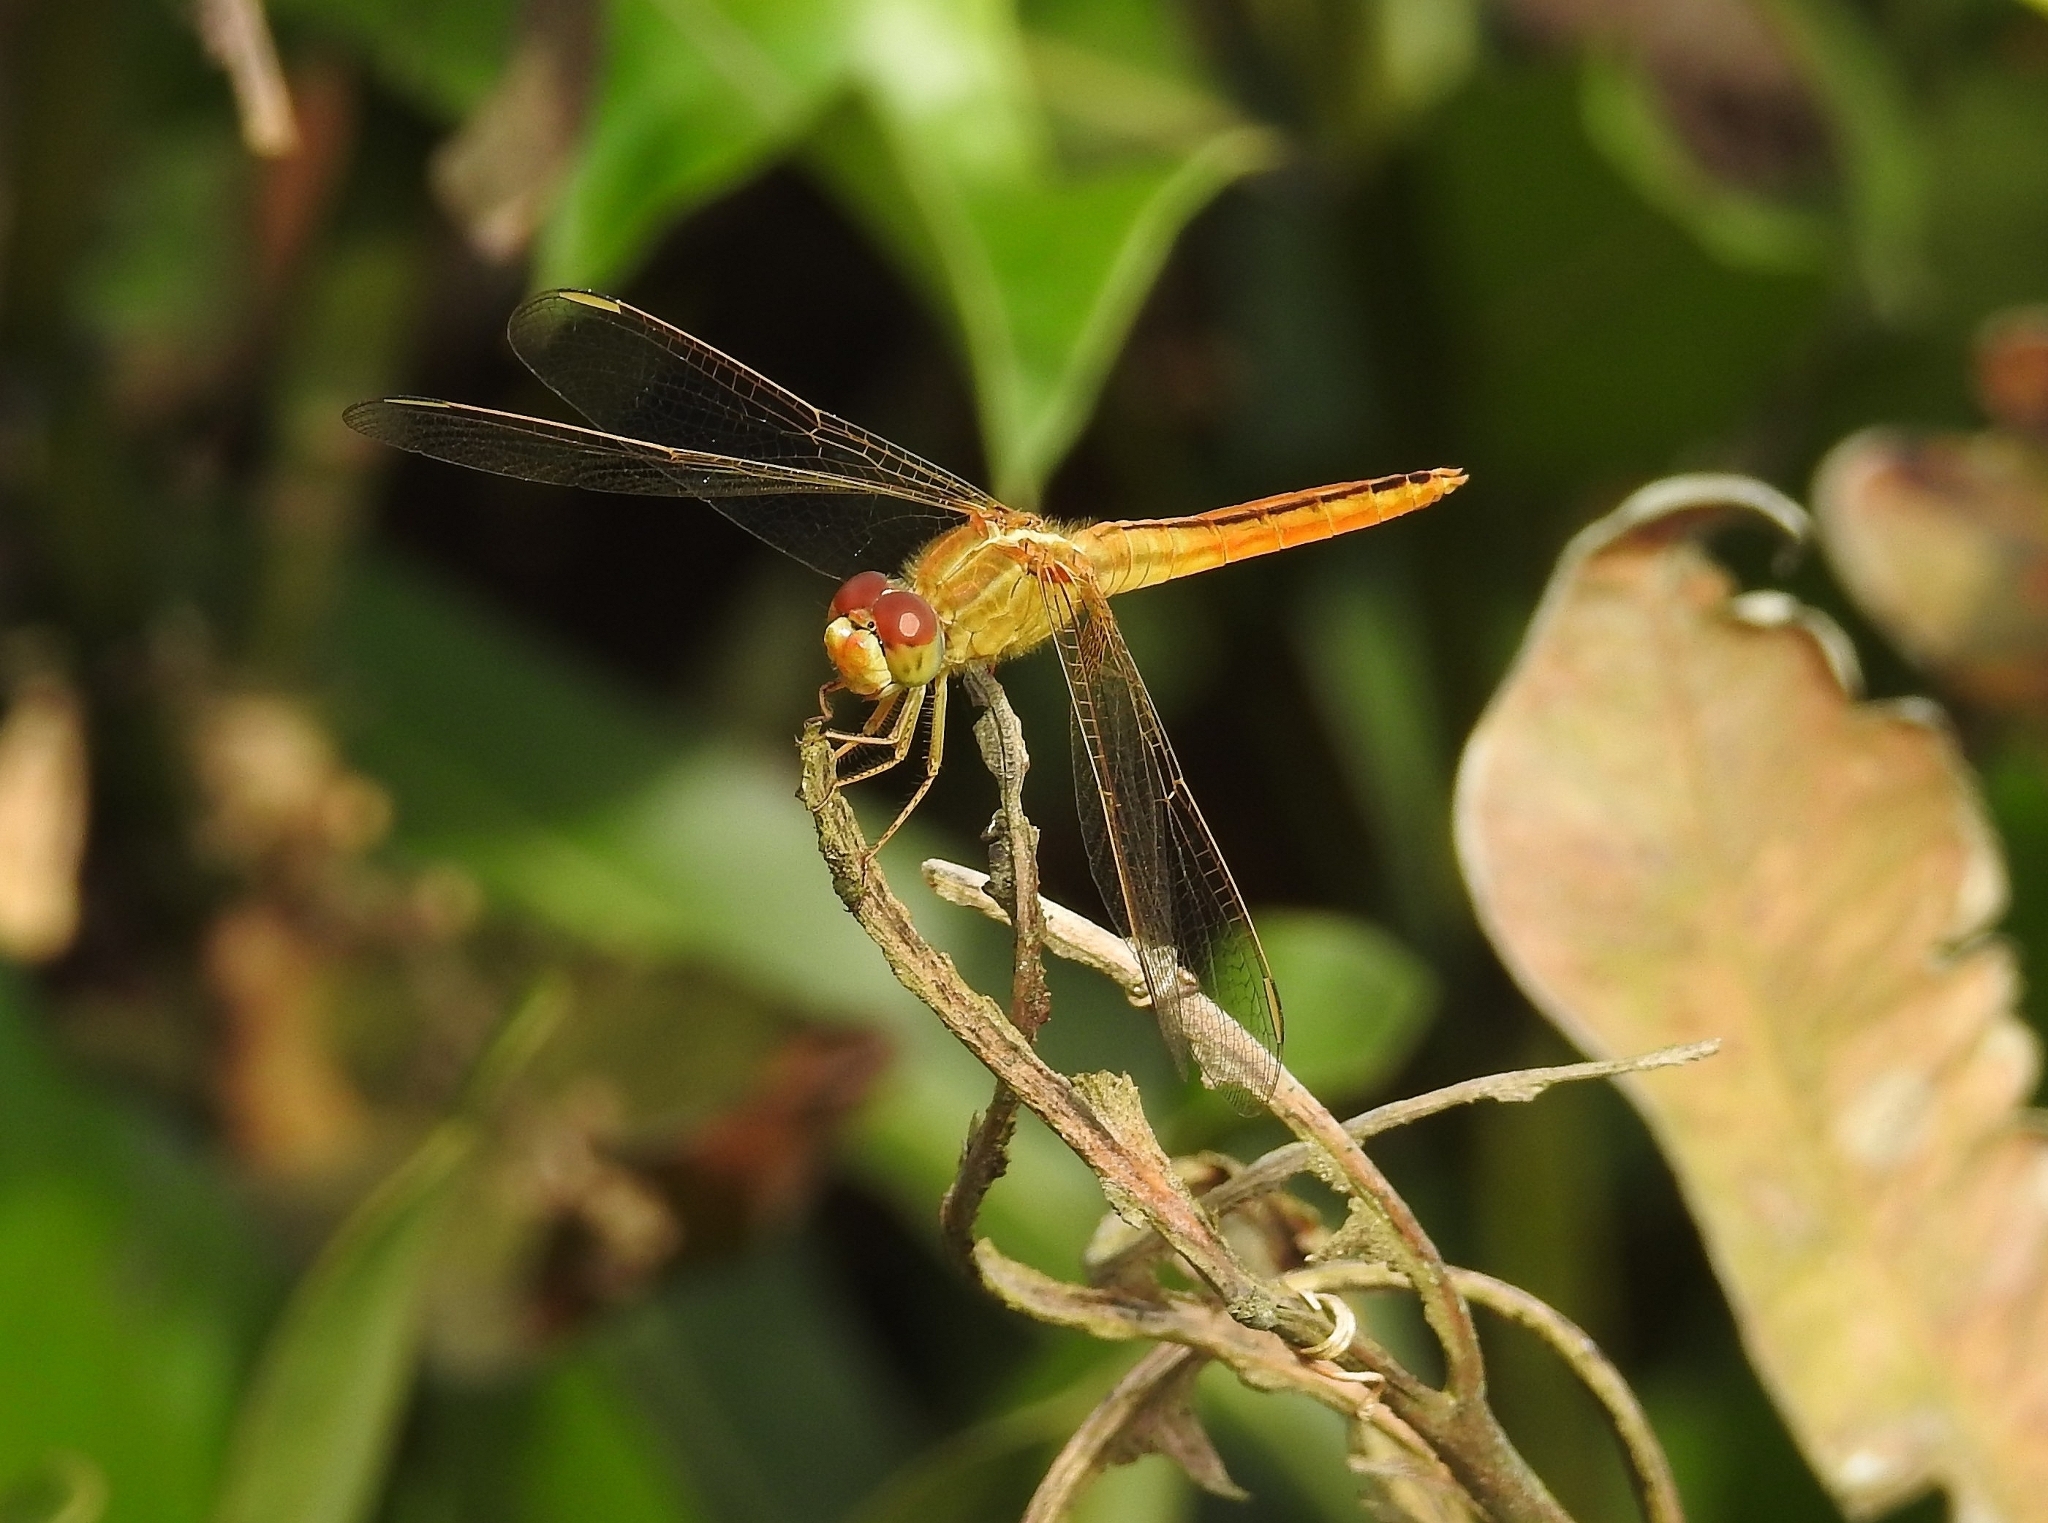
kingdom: Animalia
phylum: Arthropoda
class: Insecta
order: Odonata
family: Libellulidae
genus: Crocothemis
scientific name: Crocothemis servilia
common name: Scarlet skimmer
